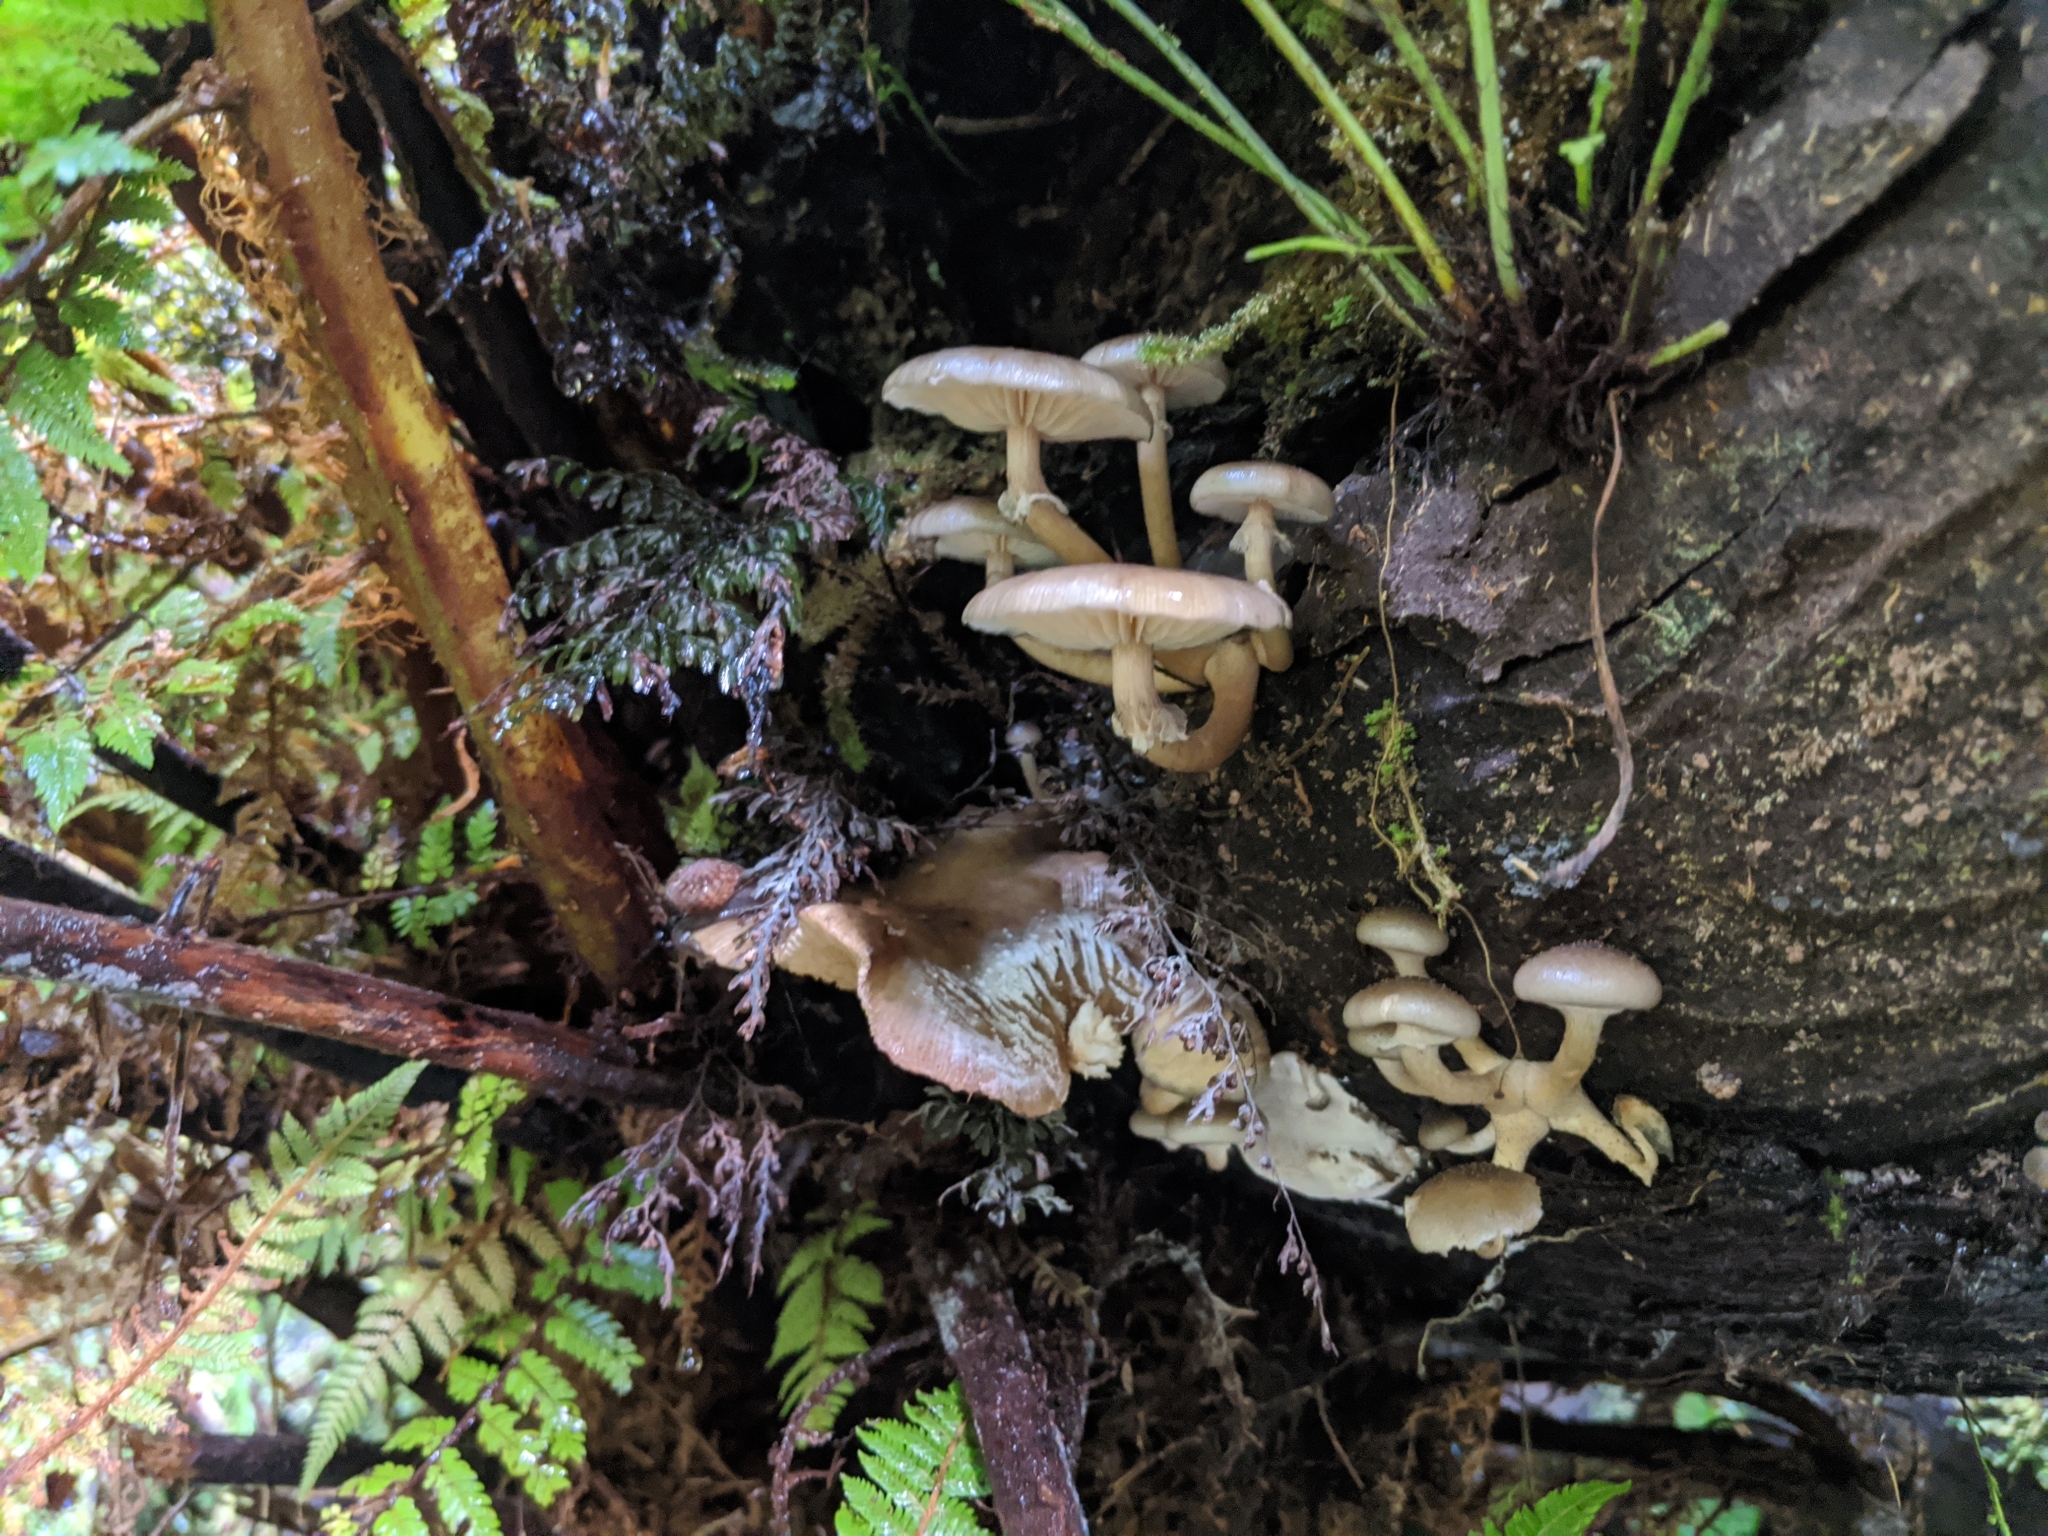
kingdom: Fungi
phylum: Basidiomycota
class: Agaricomycetes
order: Agaricales
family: Physalacriaceae
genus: Armillaria
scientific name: Armillaria novae-zelandiae
